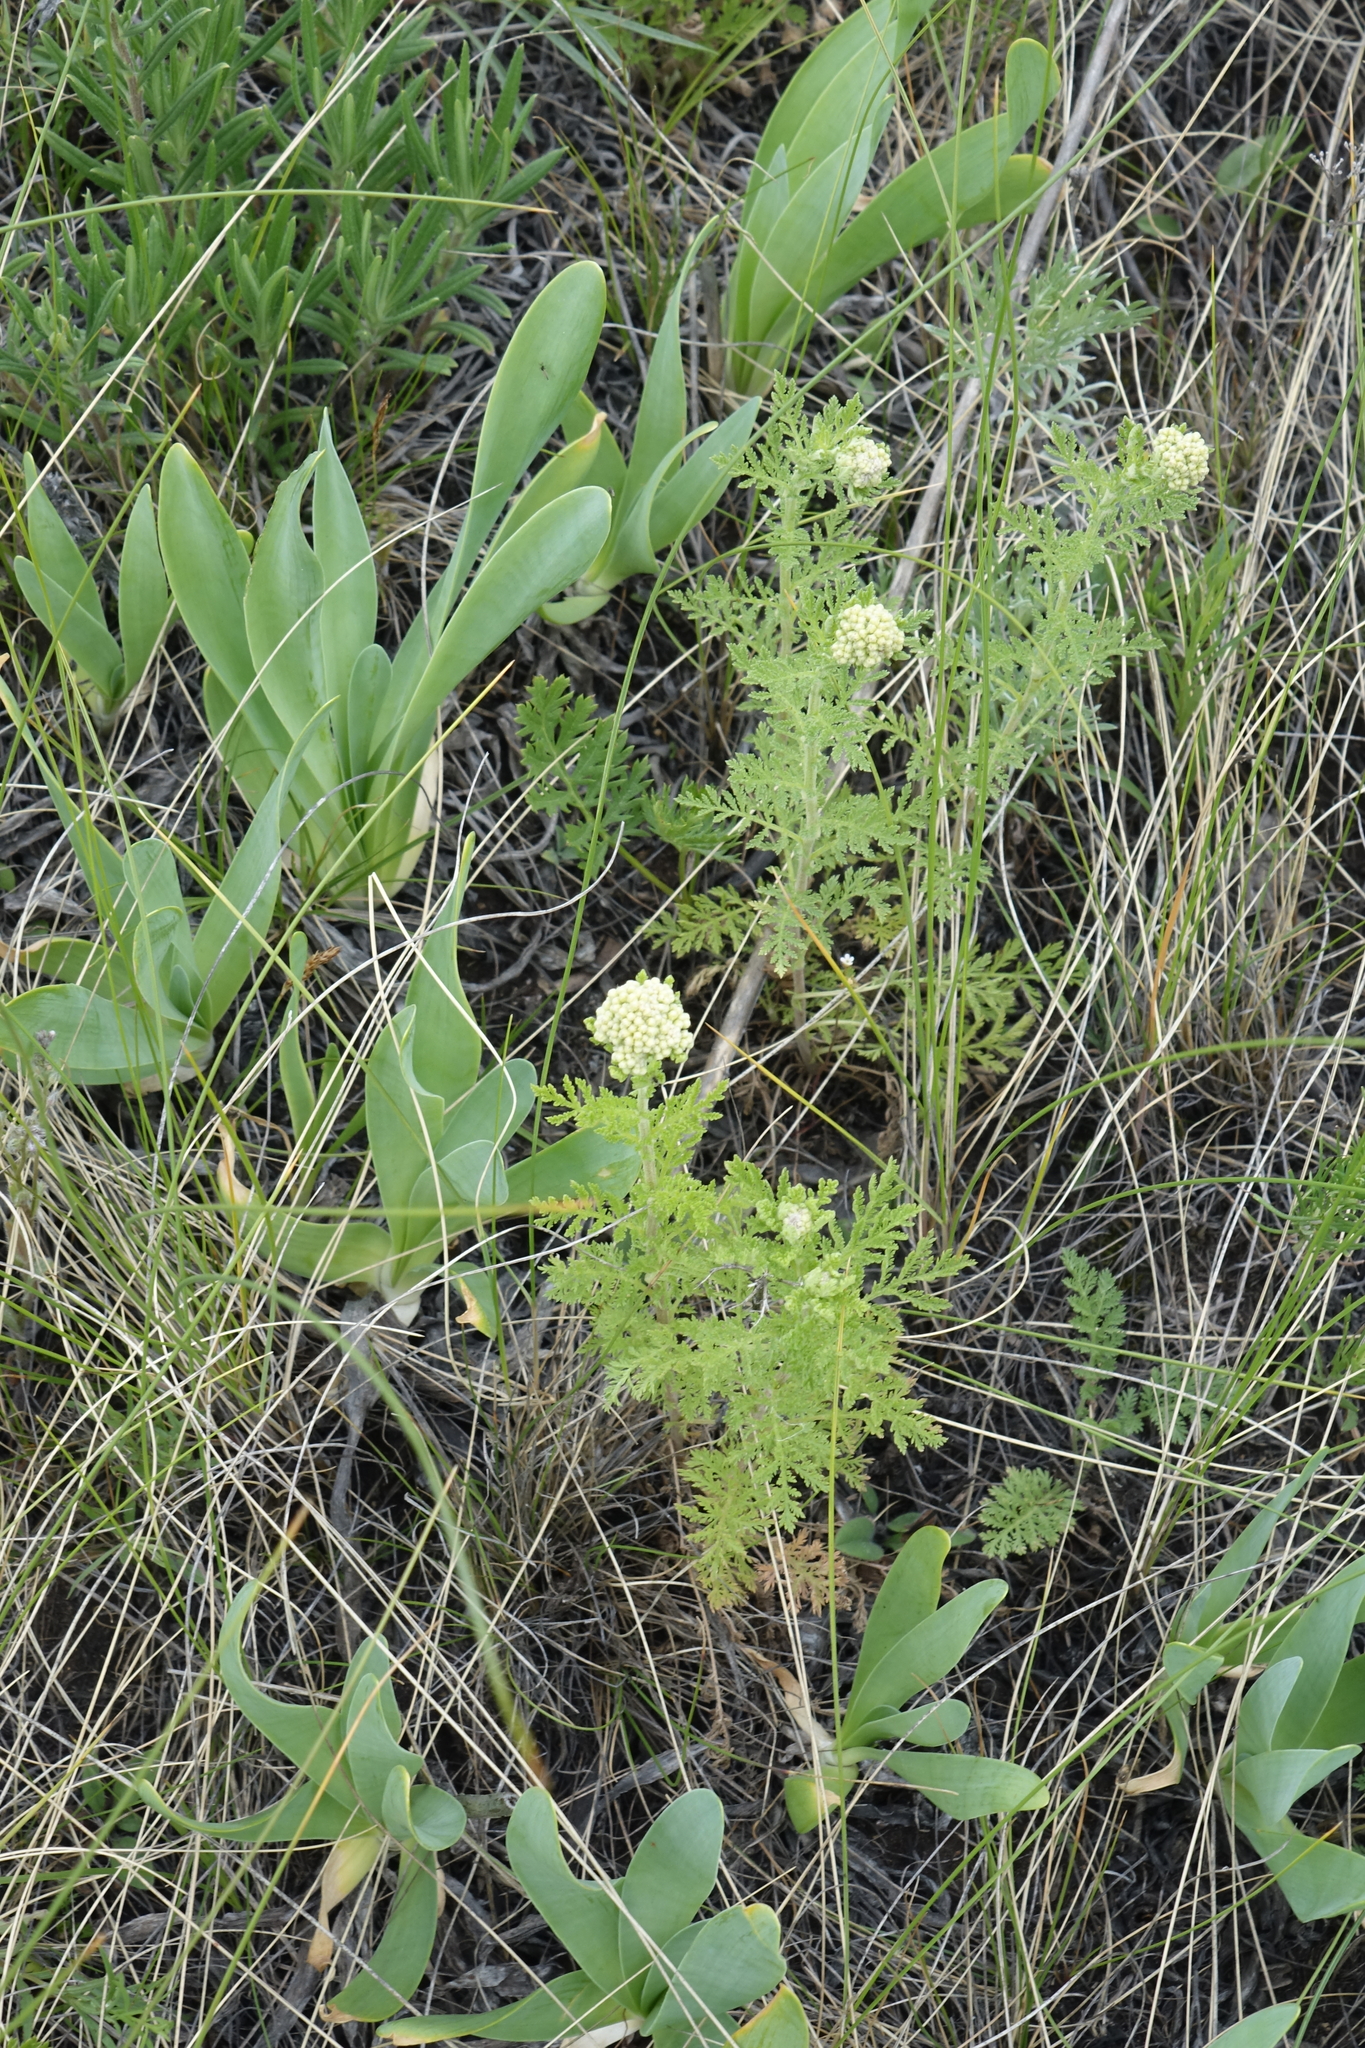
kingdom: Plantae
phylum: Tracheophyta
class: Magnoliopsida
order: Asterales
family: Asteraceae
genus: Achillea
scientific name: Achillea nobilis
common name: Noble yarrow
